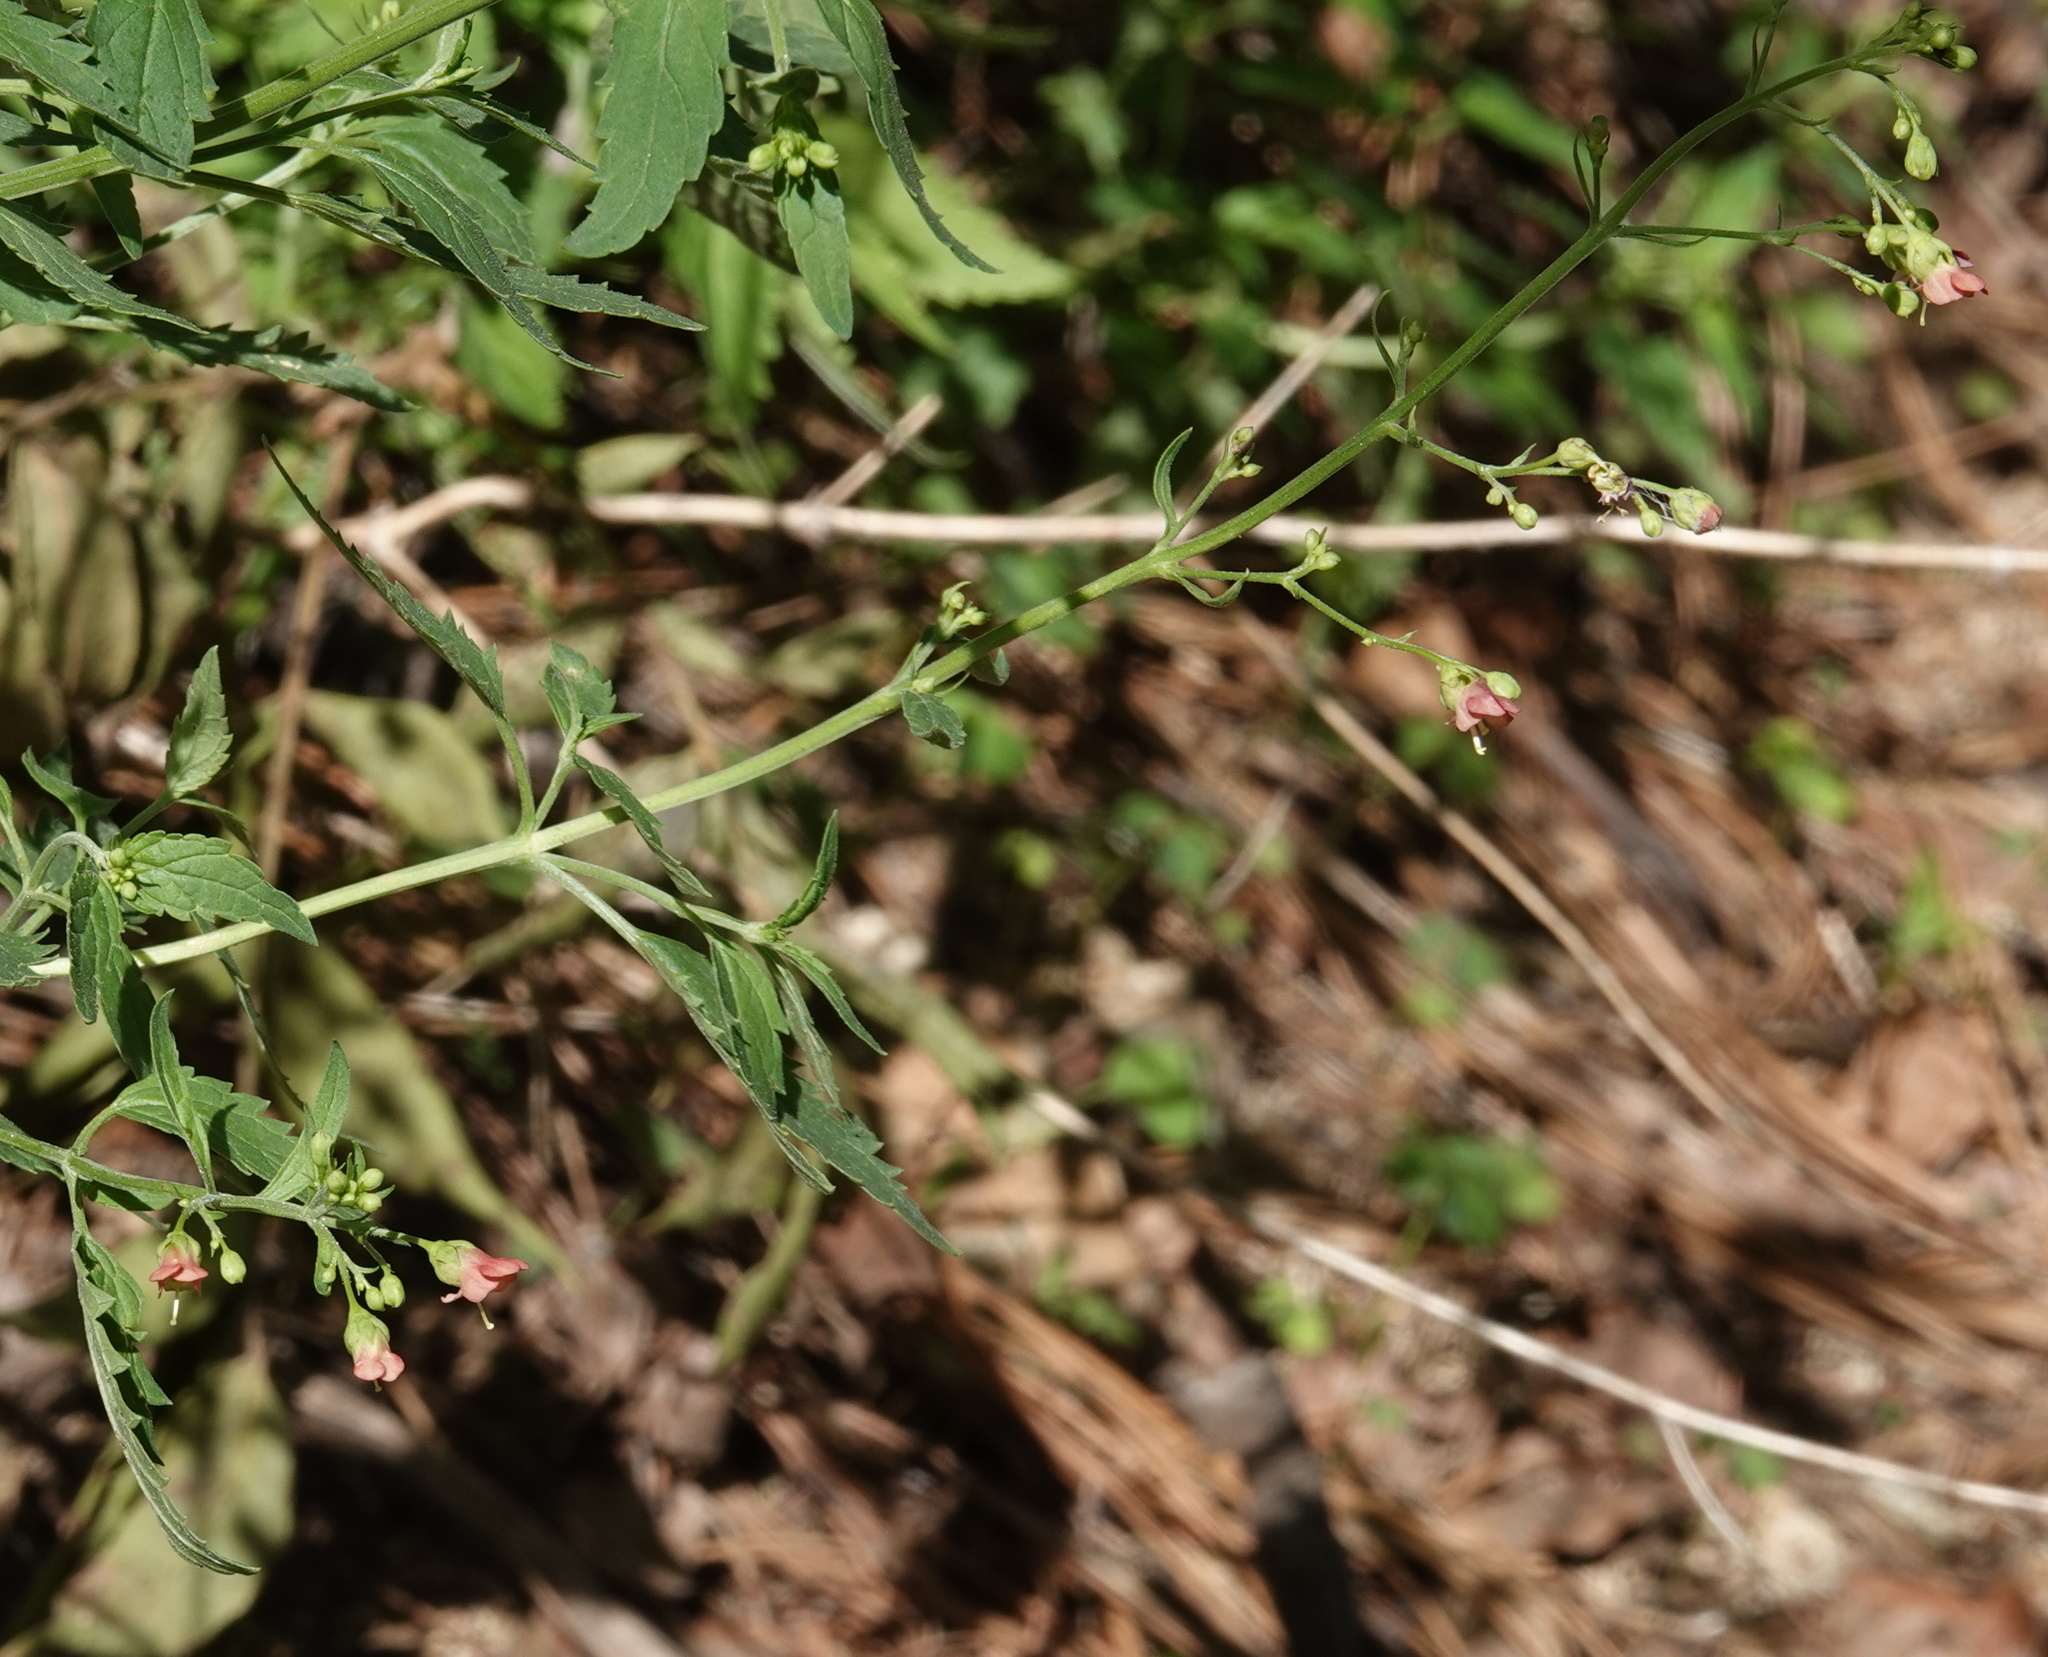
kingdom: Plantae
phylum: Tracheophyta
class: Magnoliopsida
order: Lamiales
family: Scrophulariaceae
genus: Scrophularia
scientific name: Scrophularia parviflora
